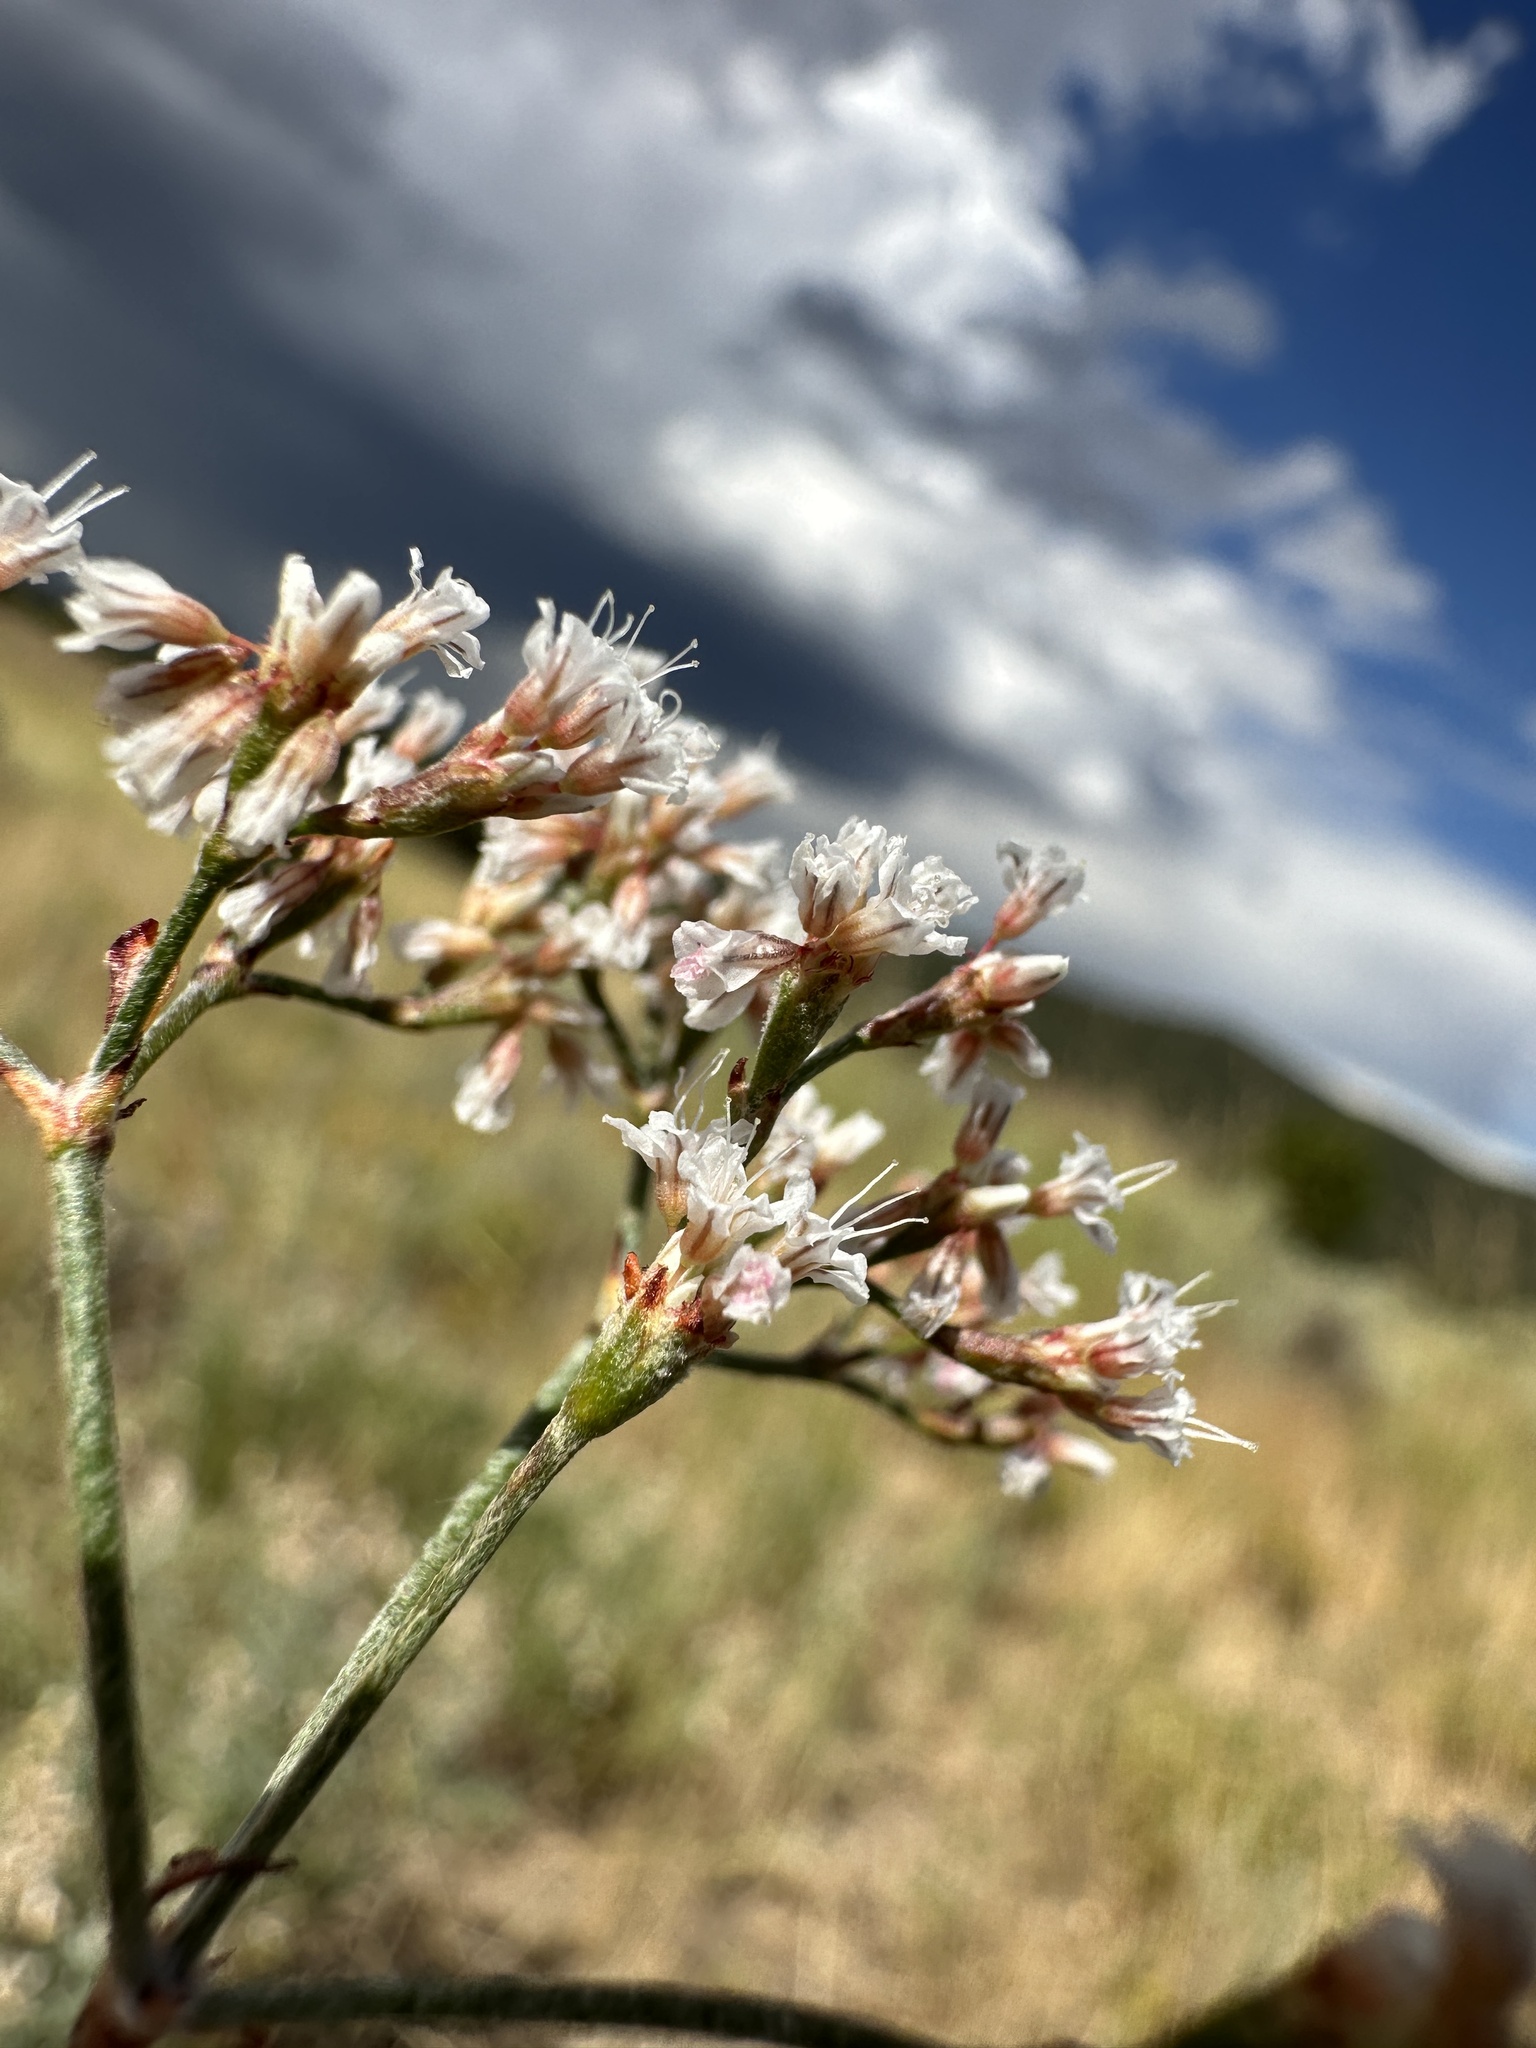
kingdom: Plantae
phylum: Tracheophyta
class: Magnoliopsida
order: Caryophyllales
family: Polygonaceae
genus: Eriogonum
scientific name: Eriogonum microtheca
